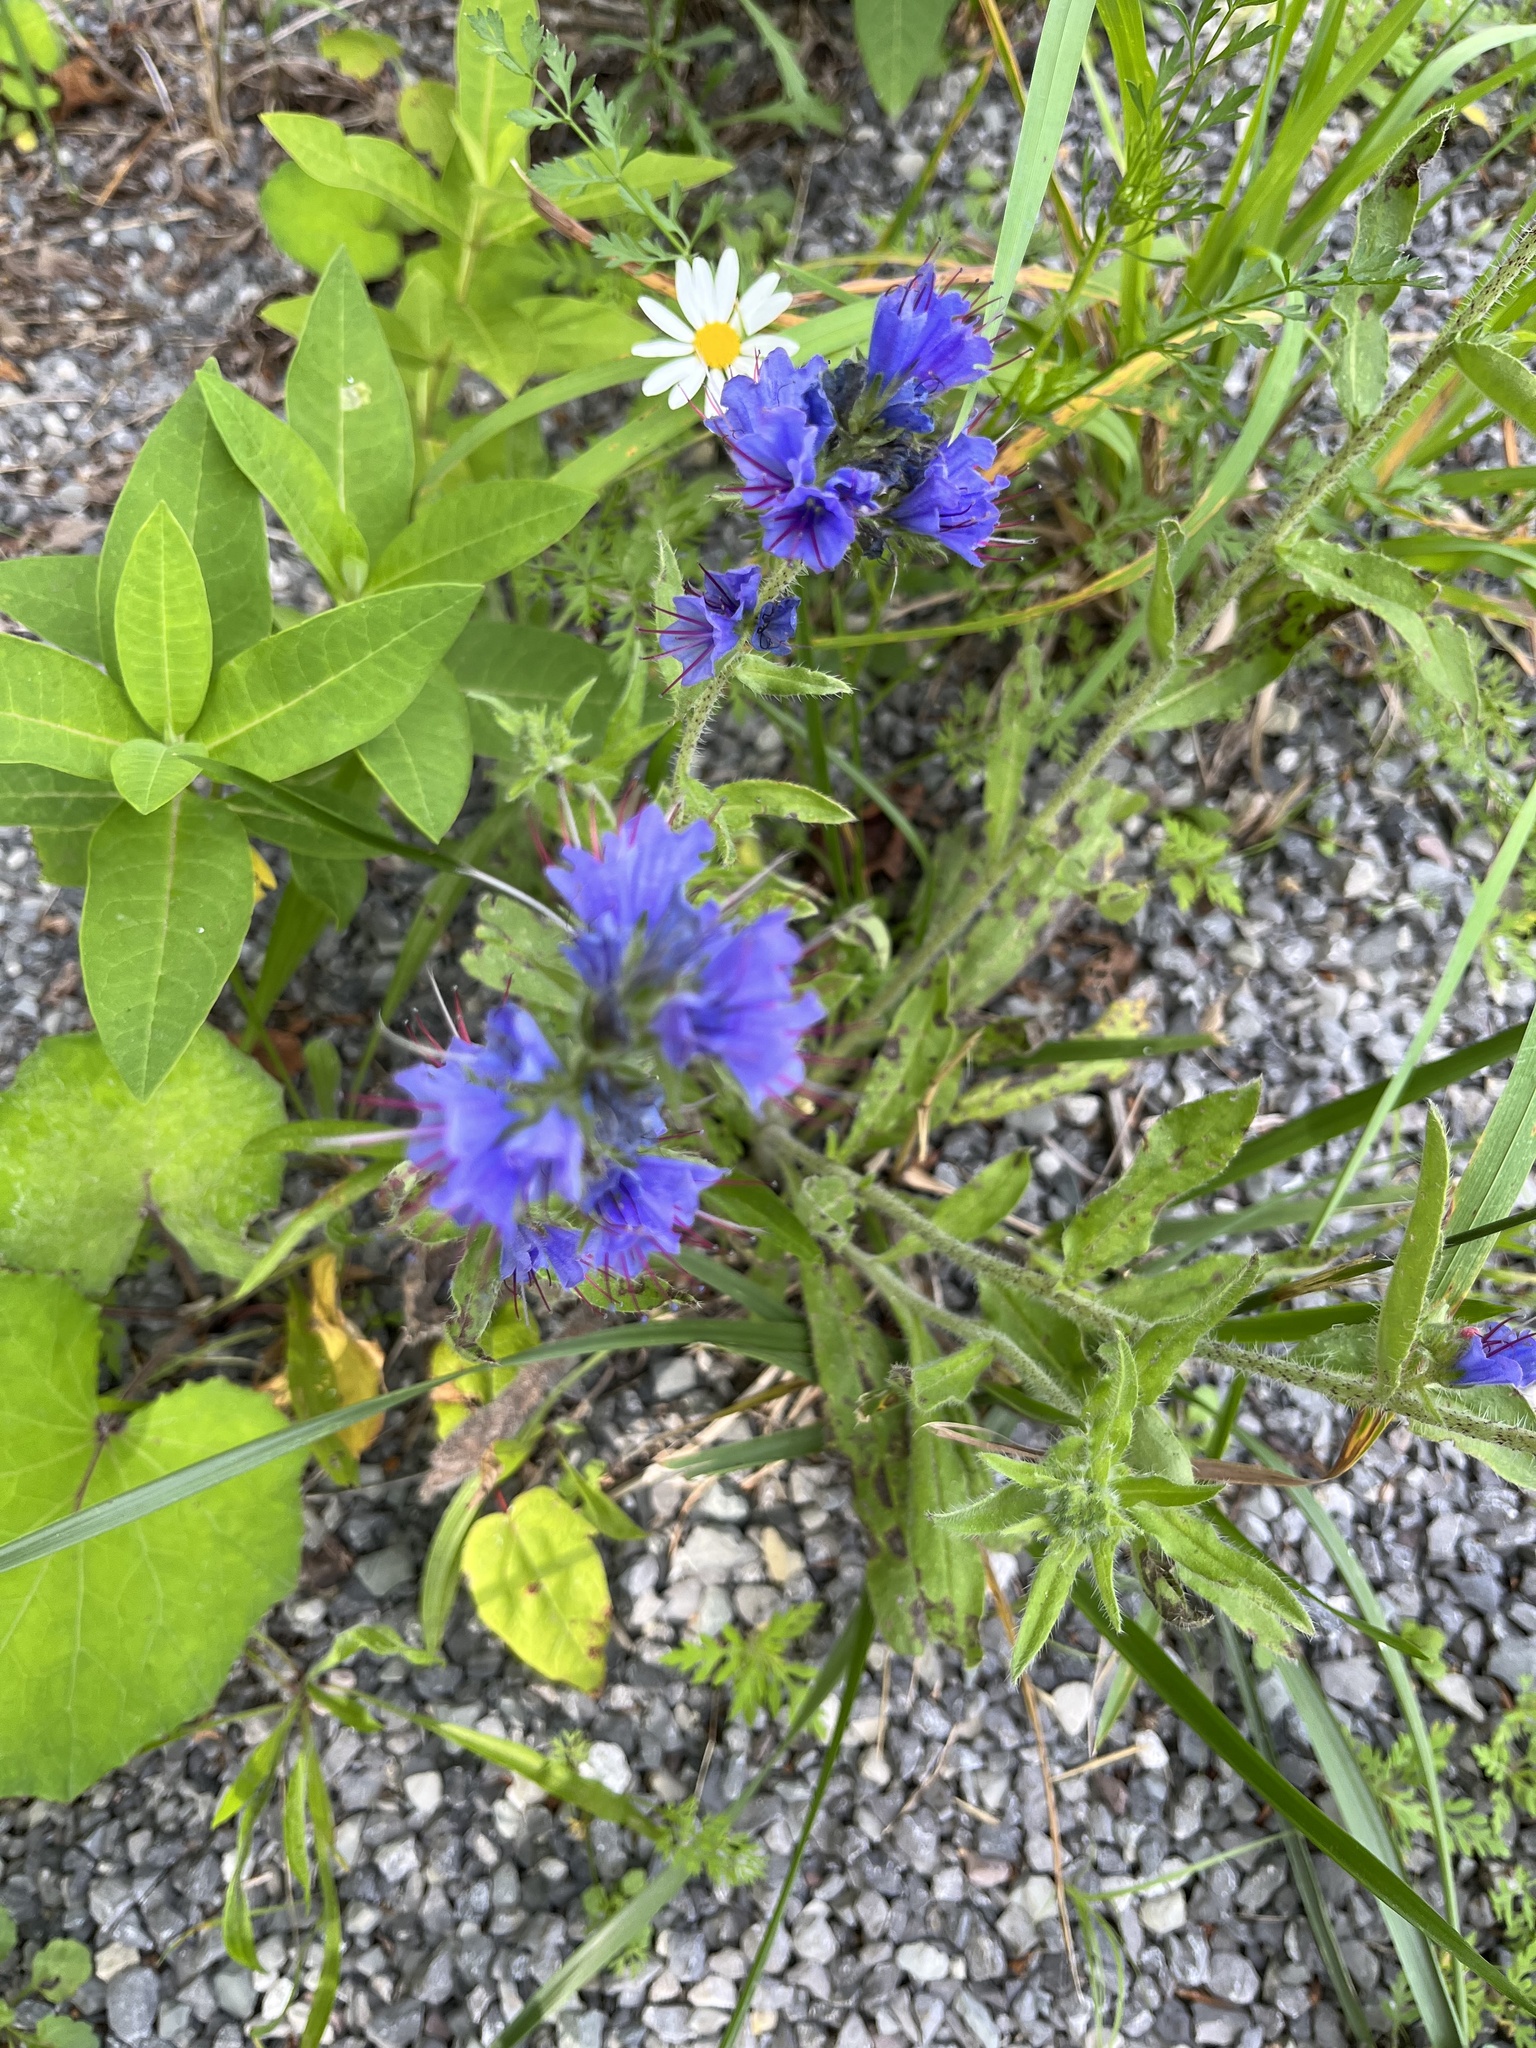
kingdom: Plantae
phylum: Tracheophyta
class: Magnoliopsida
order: Boraginales
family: Boraginaceae
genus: Echium
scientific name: Echium vulgare
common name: Common viper's bugloss
